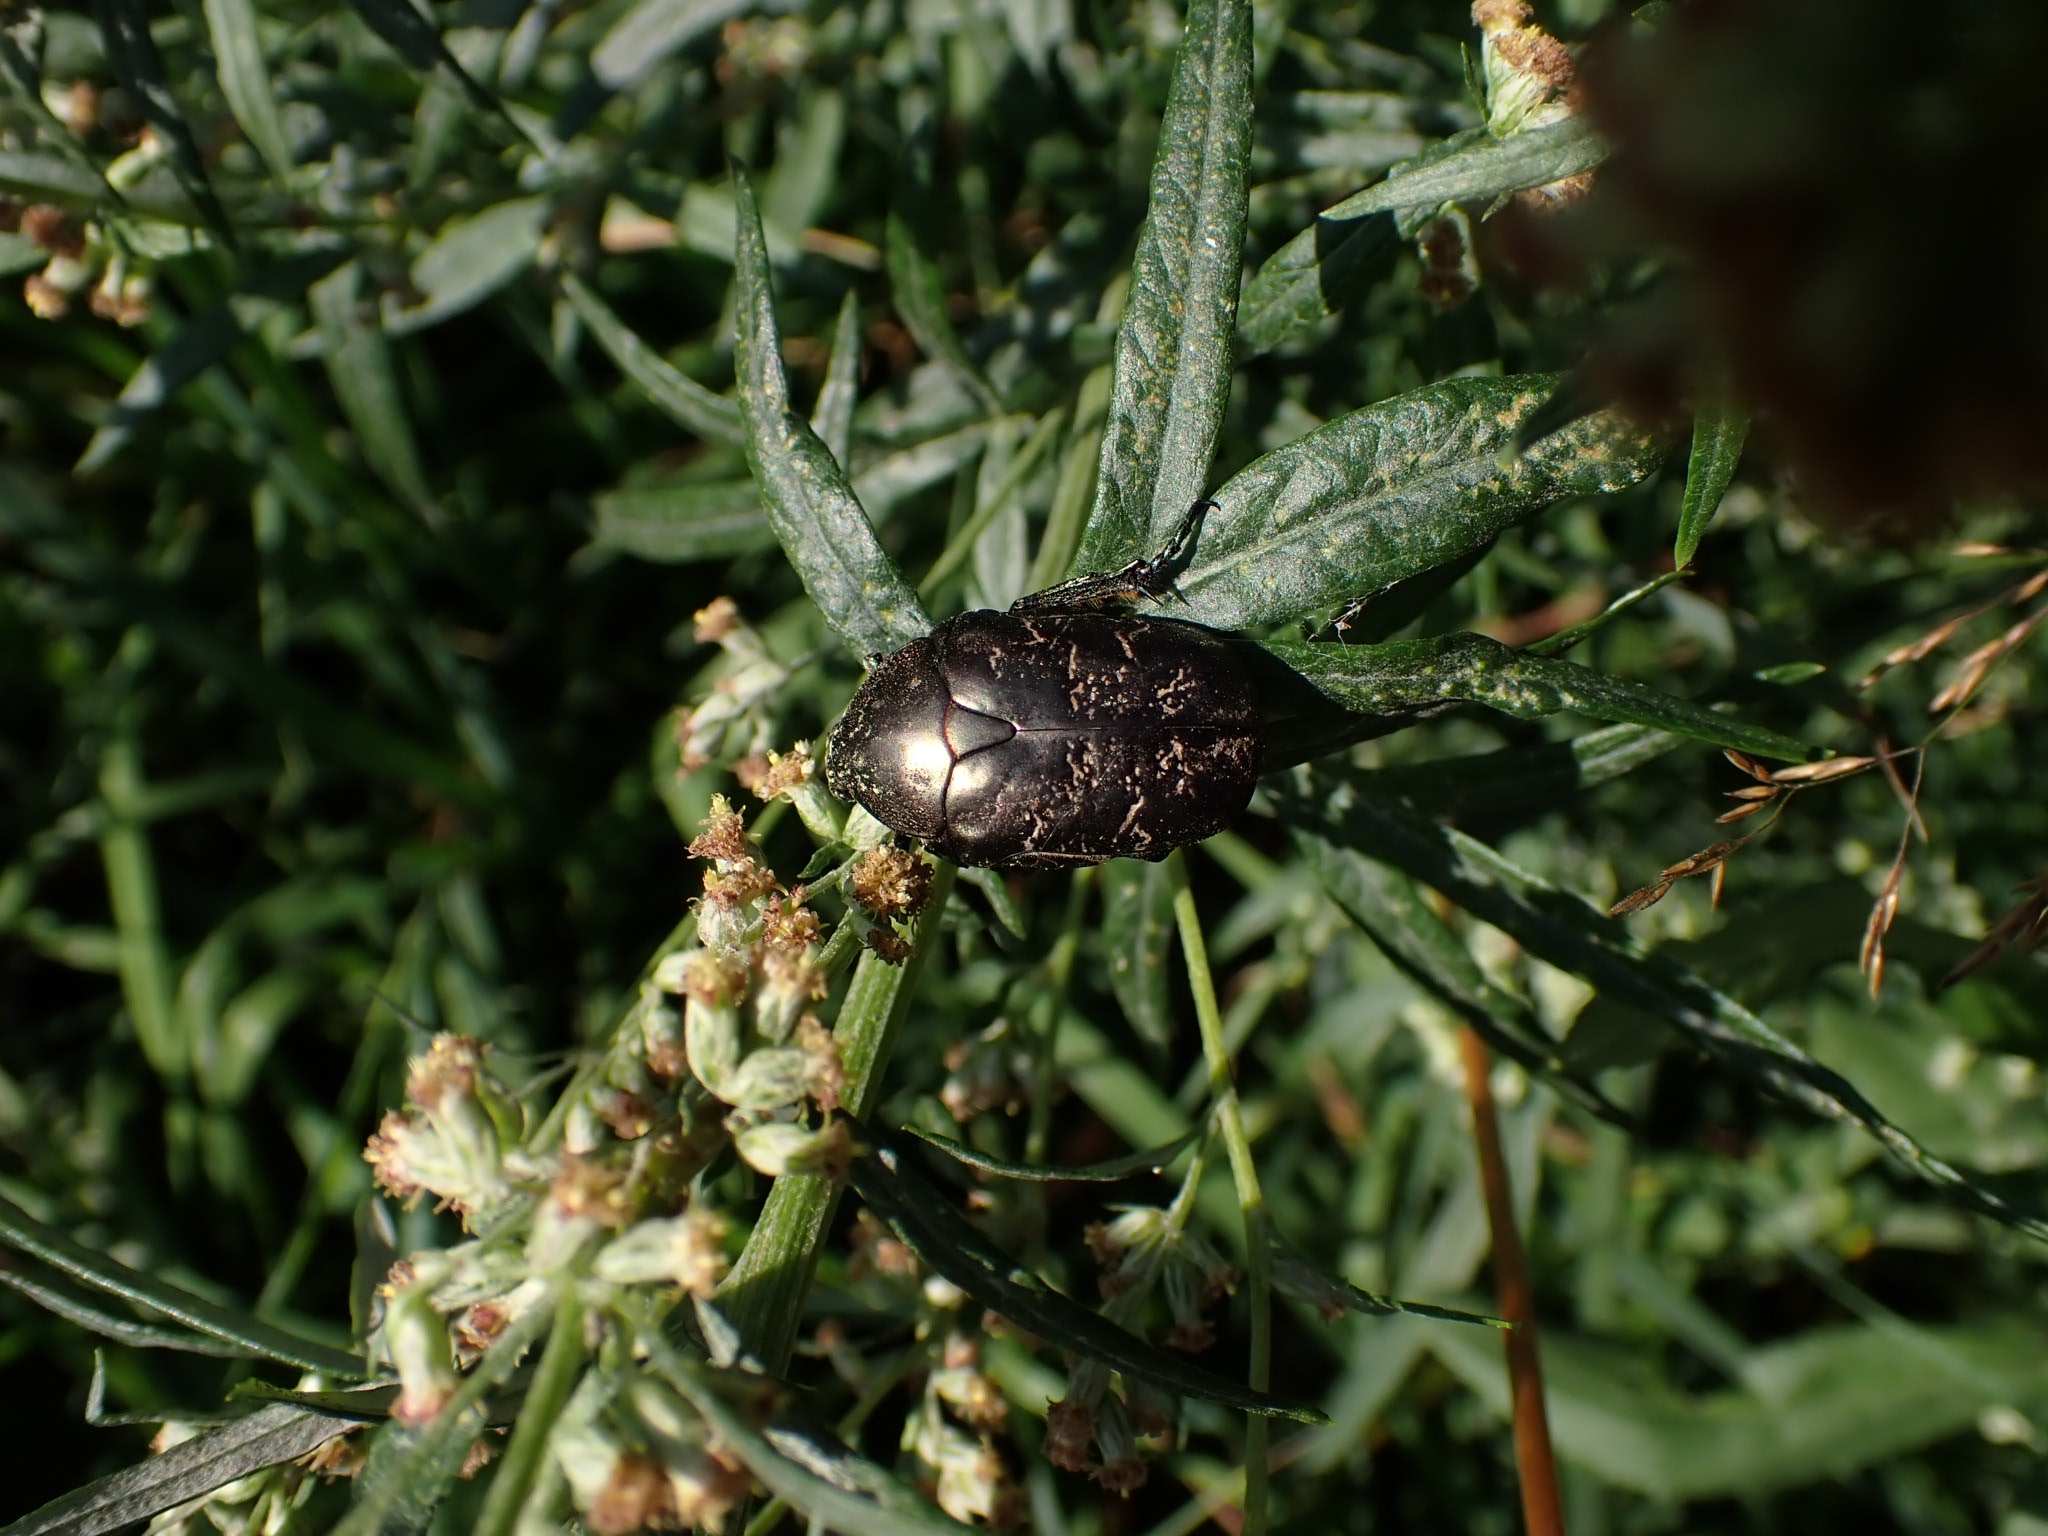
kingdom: Animalia
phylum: Arthropoda
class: Insecta
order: Coleoptera
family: Scarabaeidae
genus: Protaetia
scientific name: Protaetia marmorata
